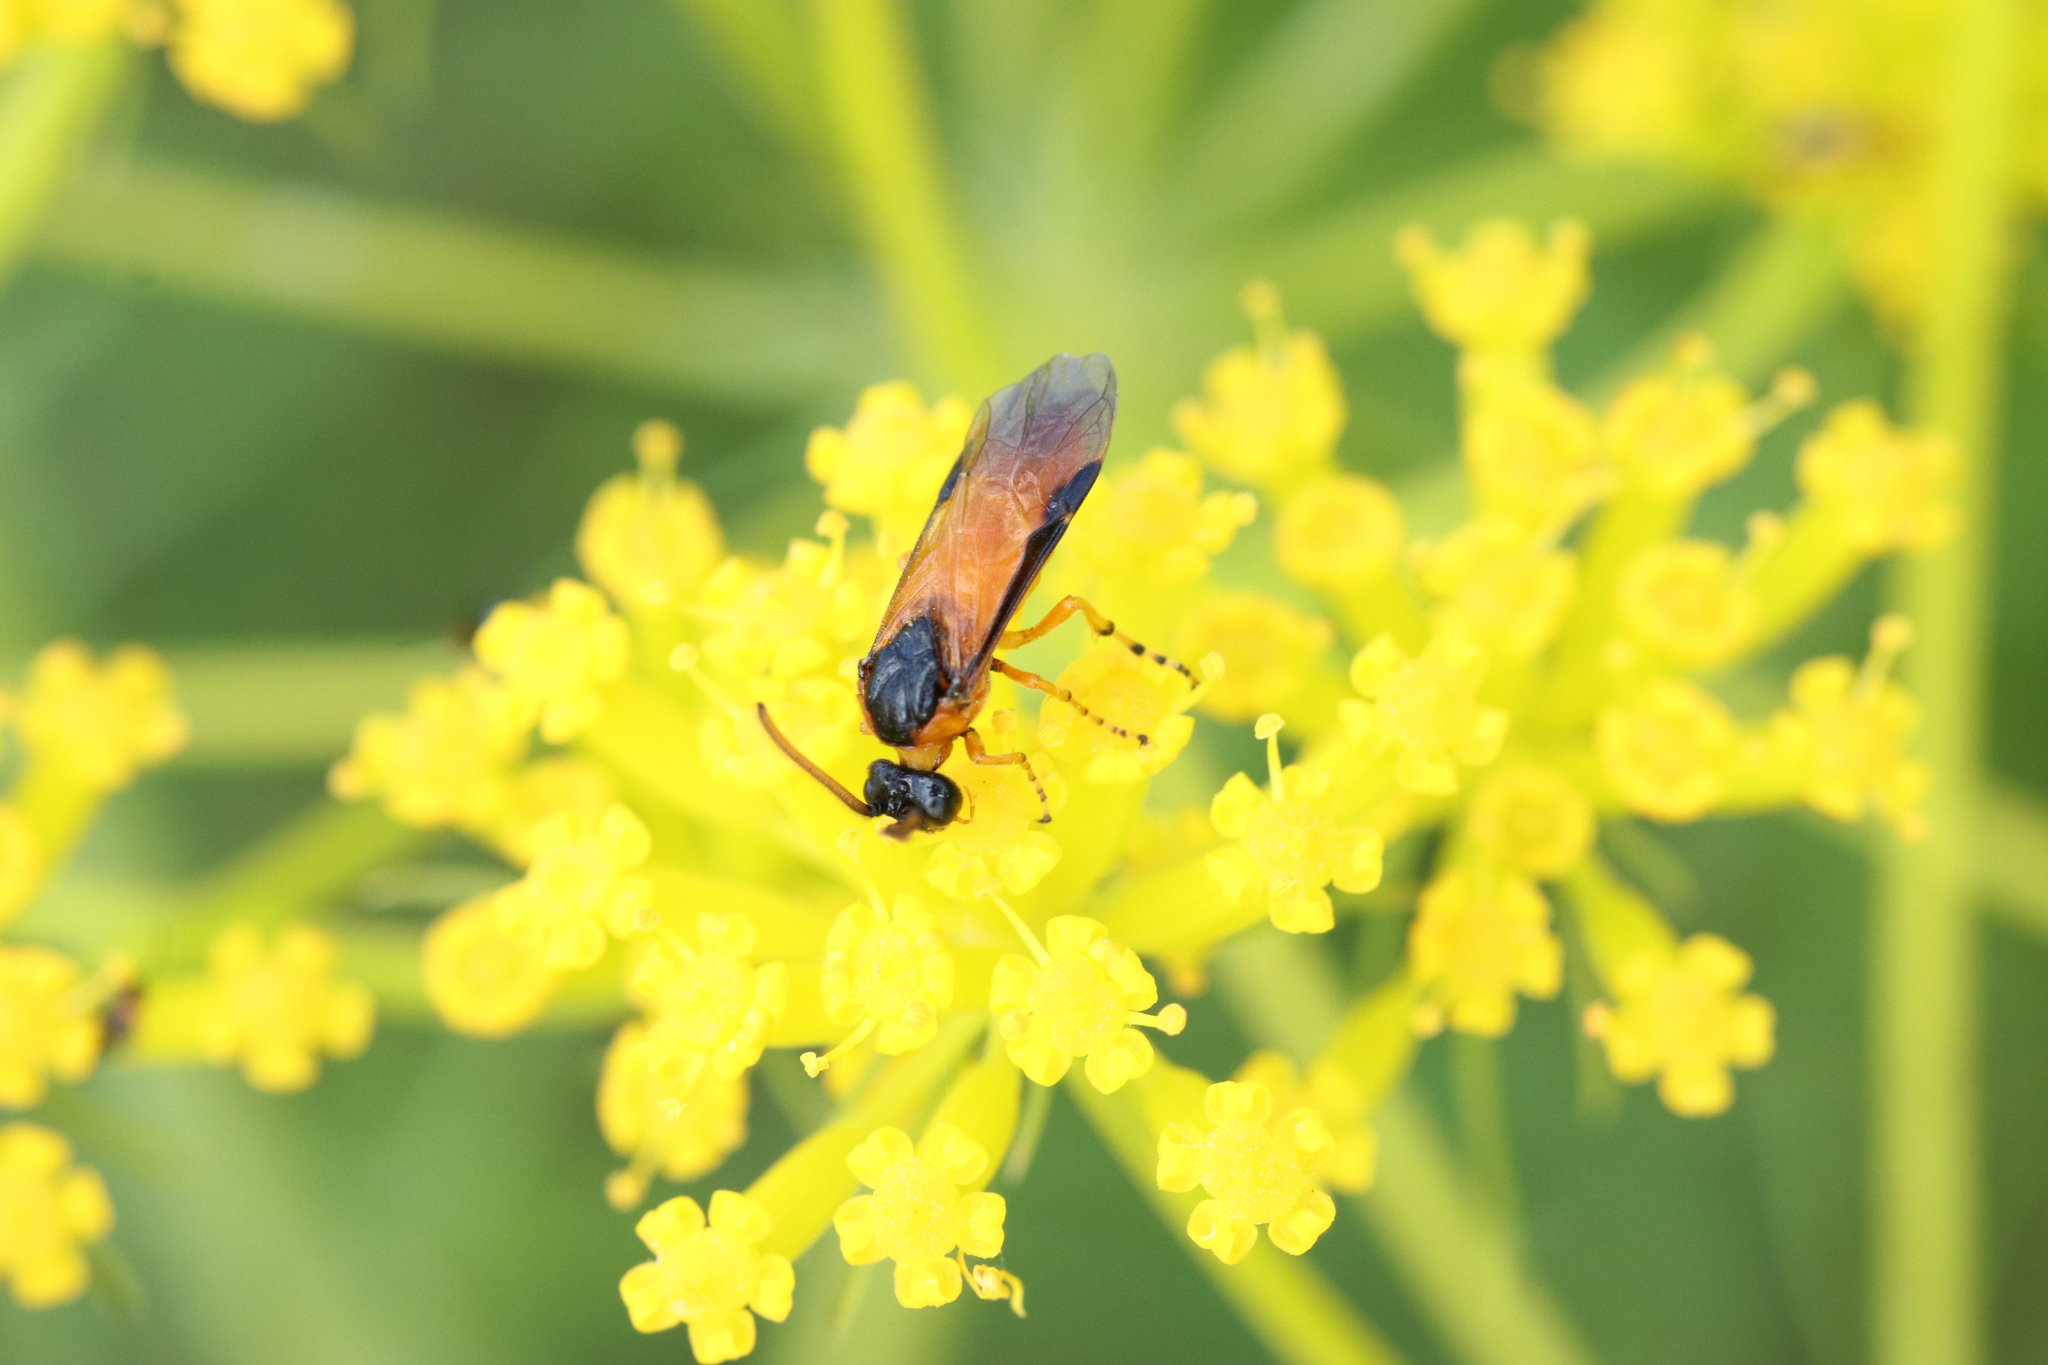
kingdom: Animalia
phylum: Arthropoda
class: Insecta
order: Hymenoptera
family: Argidae
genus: Arge
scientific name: Arge ochropus
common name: Argid sawfly
